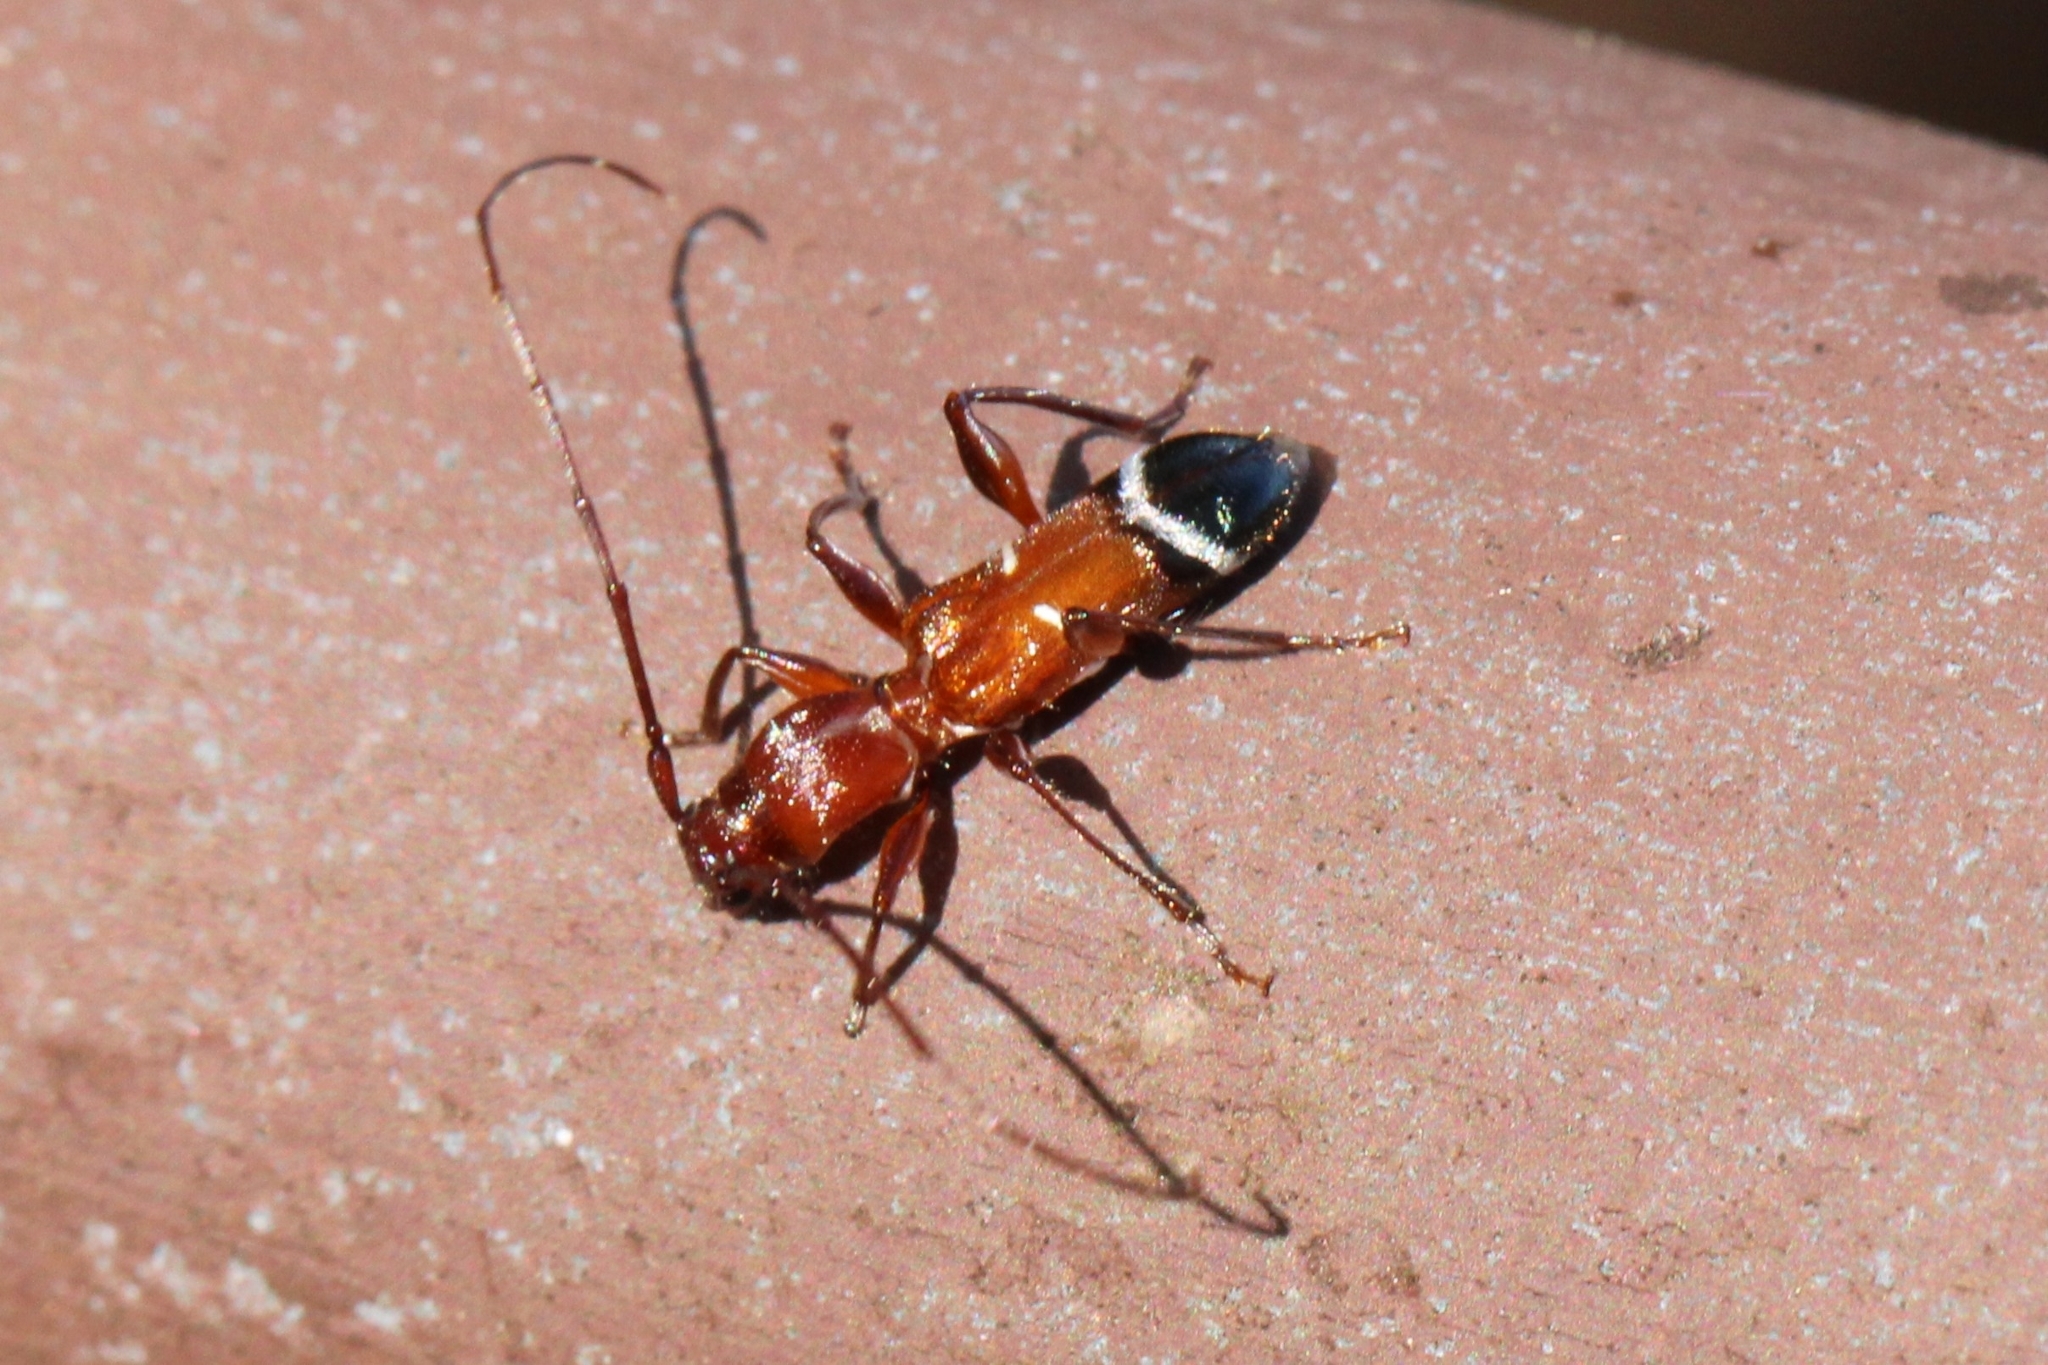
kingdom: Animalia
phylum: Arthropoda
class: Insecta
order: Coleoptera
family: Cerambycidae
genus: Euderces
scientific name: Euderces pini
